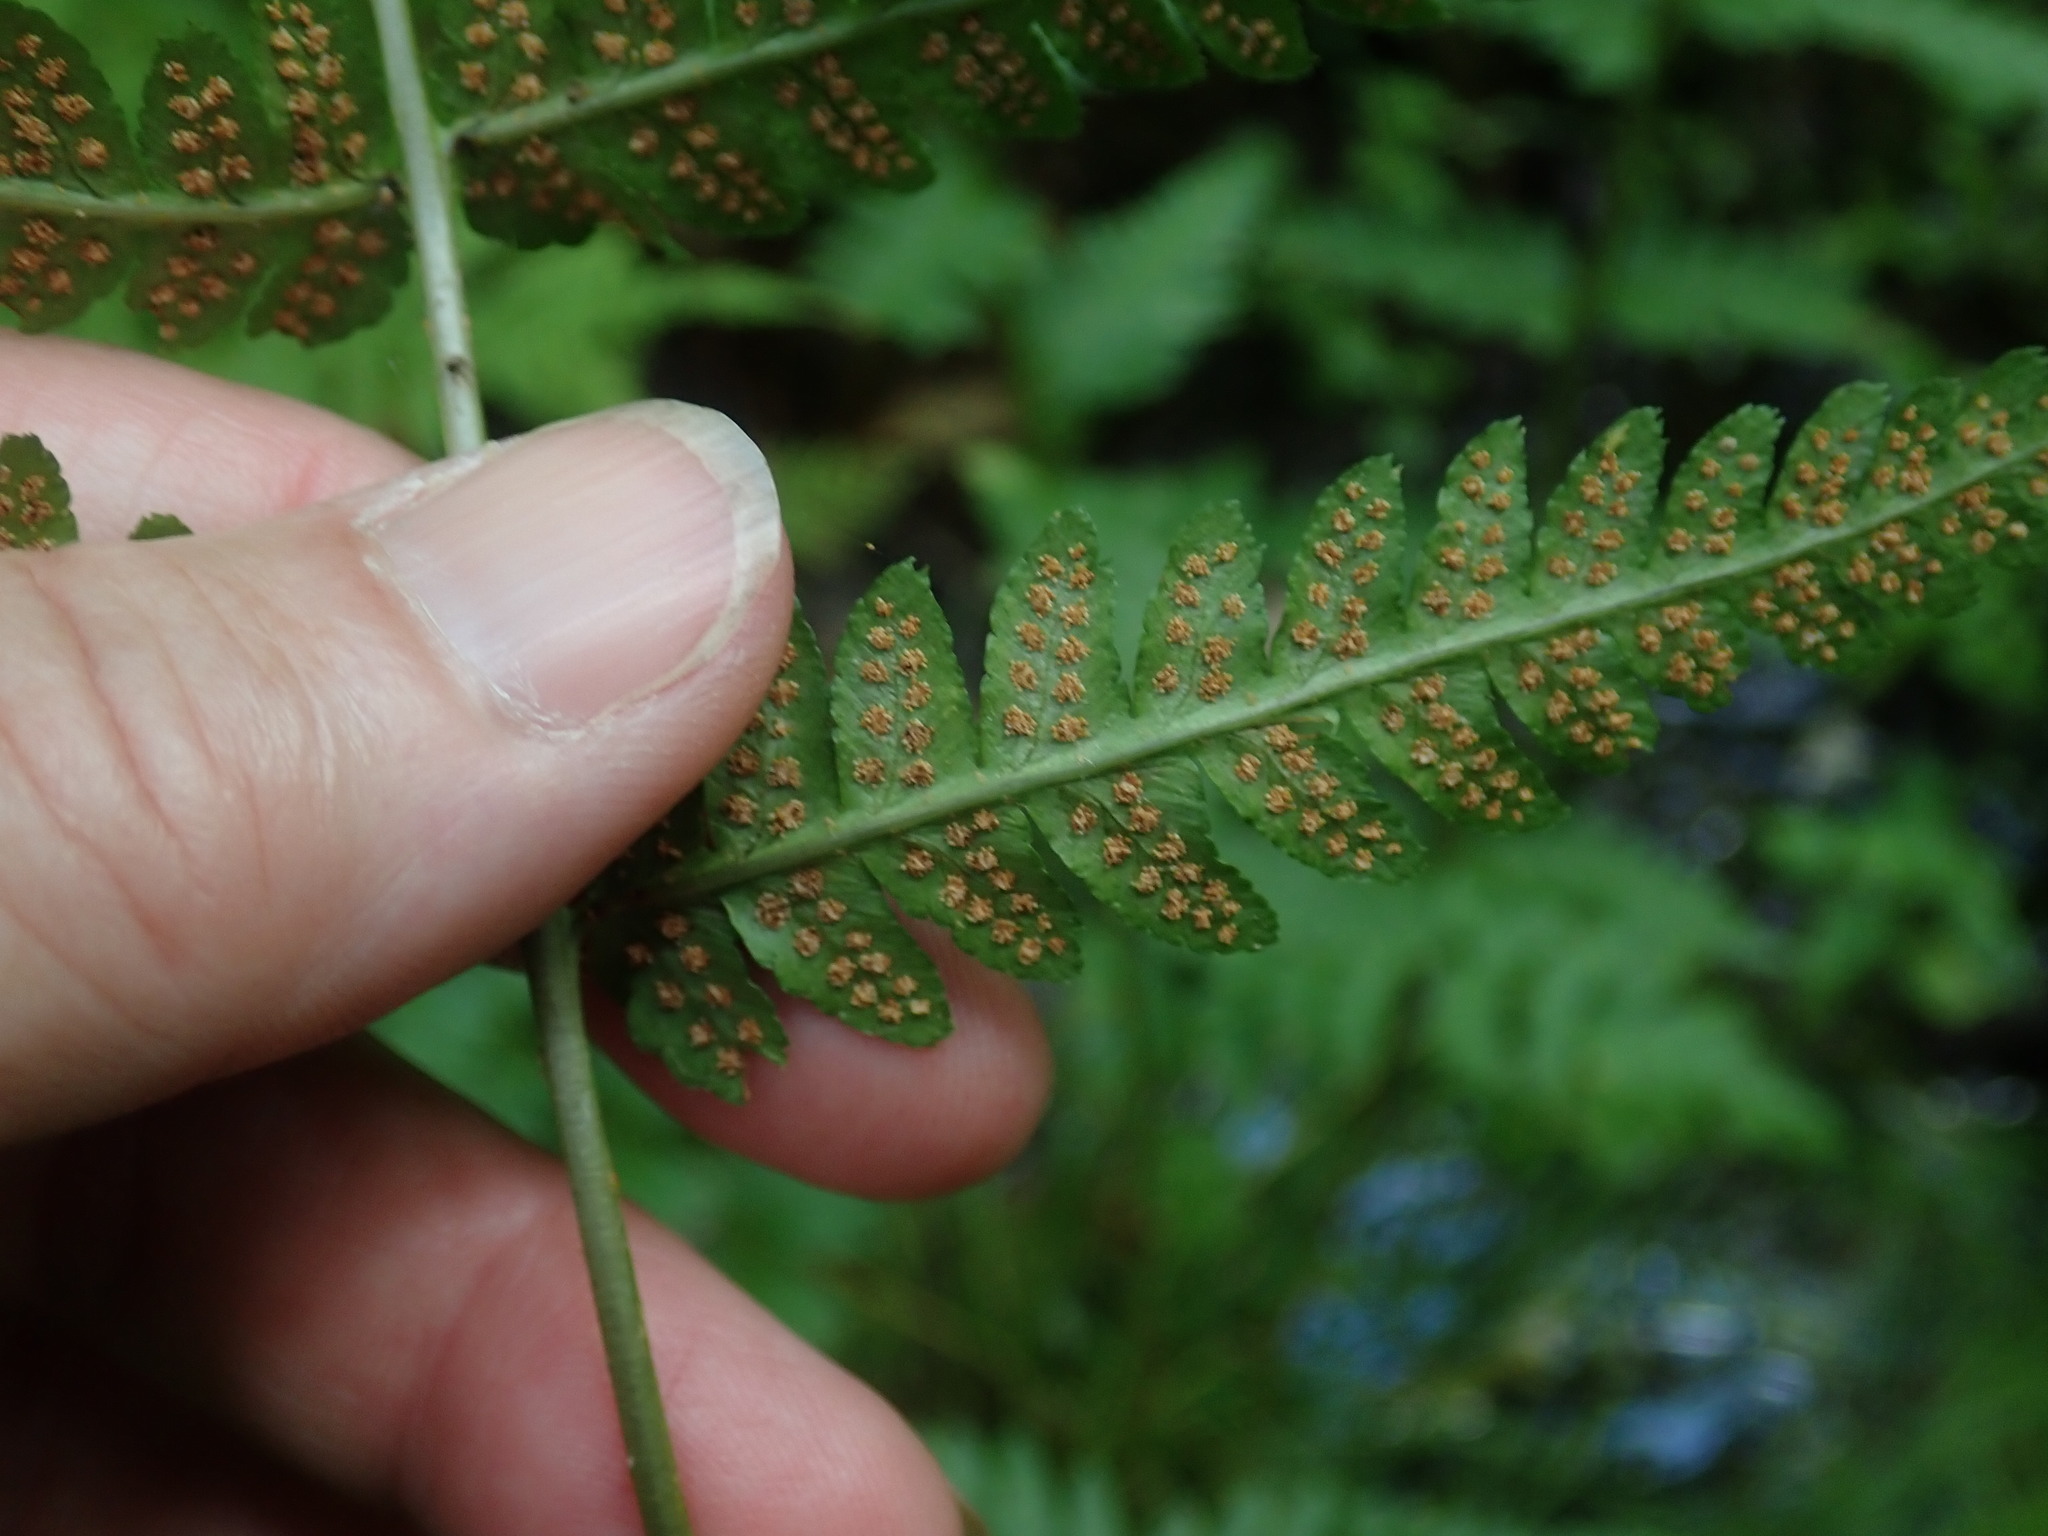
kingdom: Plantae
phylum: Tracheophyta
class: Polypodiopsida
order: Polypodiales
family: Dryopteridaceae
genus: Dryopteris
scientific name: Dryopteris cristata
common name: Crested wood fern
